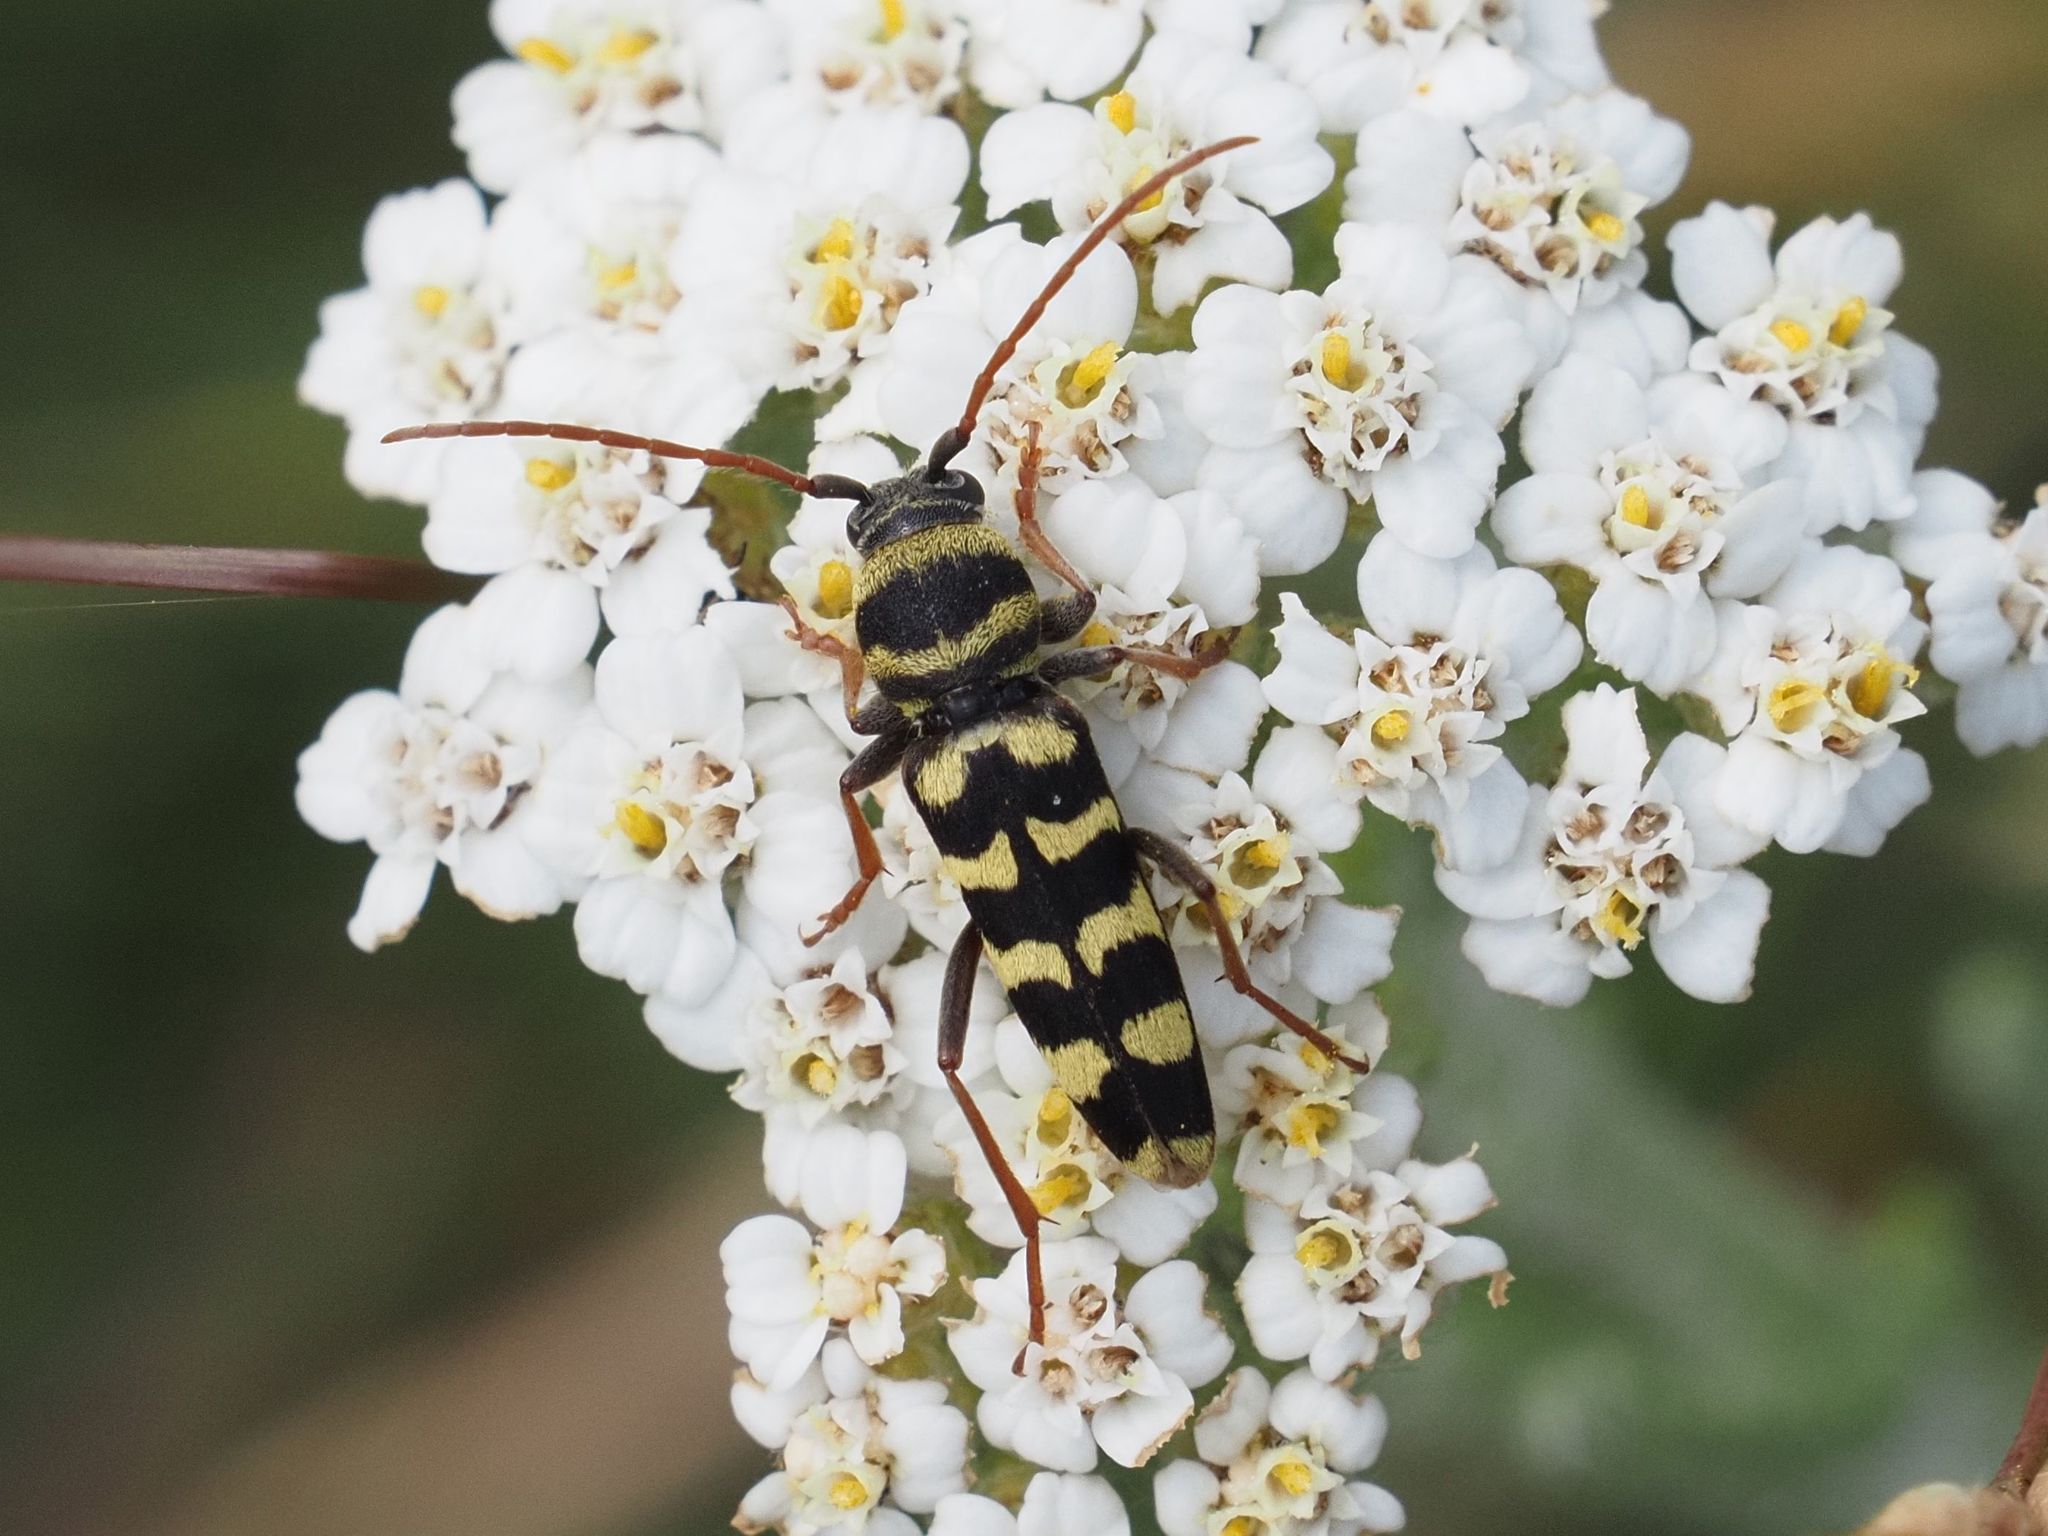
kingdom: Animalia
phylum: Arthropoda
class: Insecta
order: Coleoptera
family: Cerambycidae
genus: Plagionotus
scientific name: Plagionotus floralis
